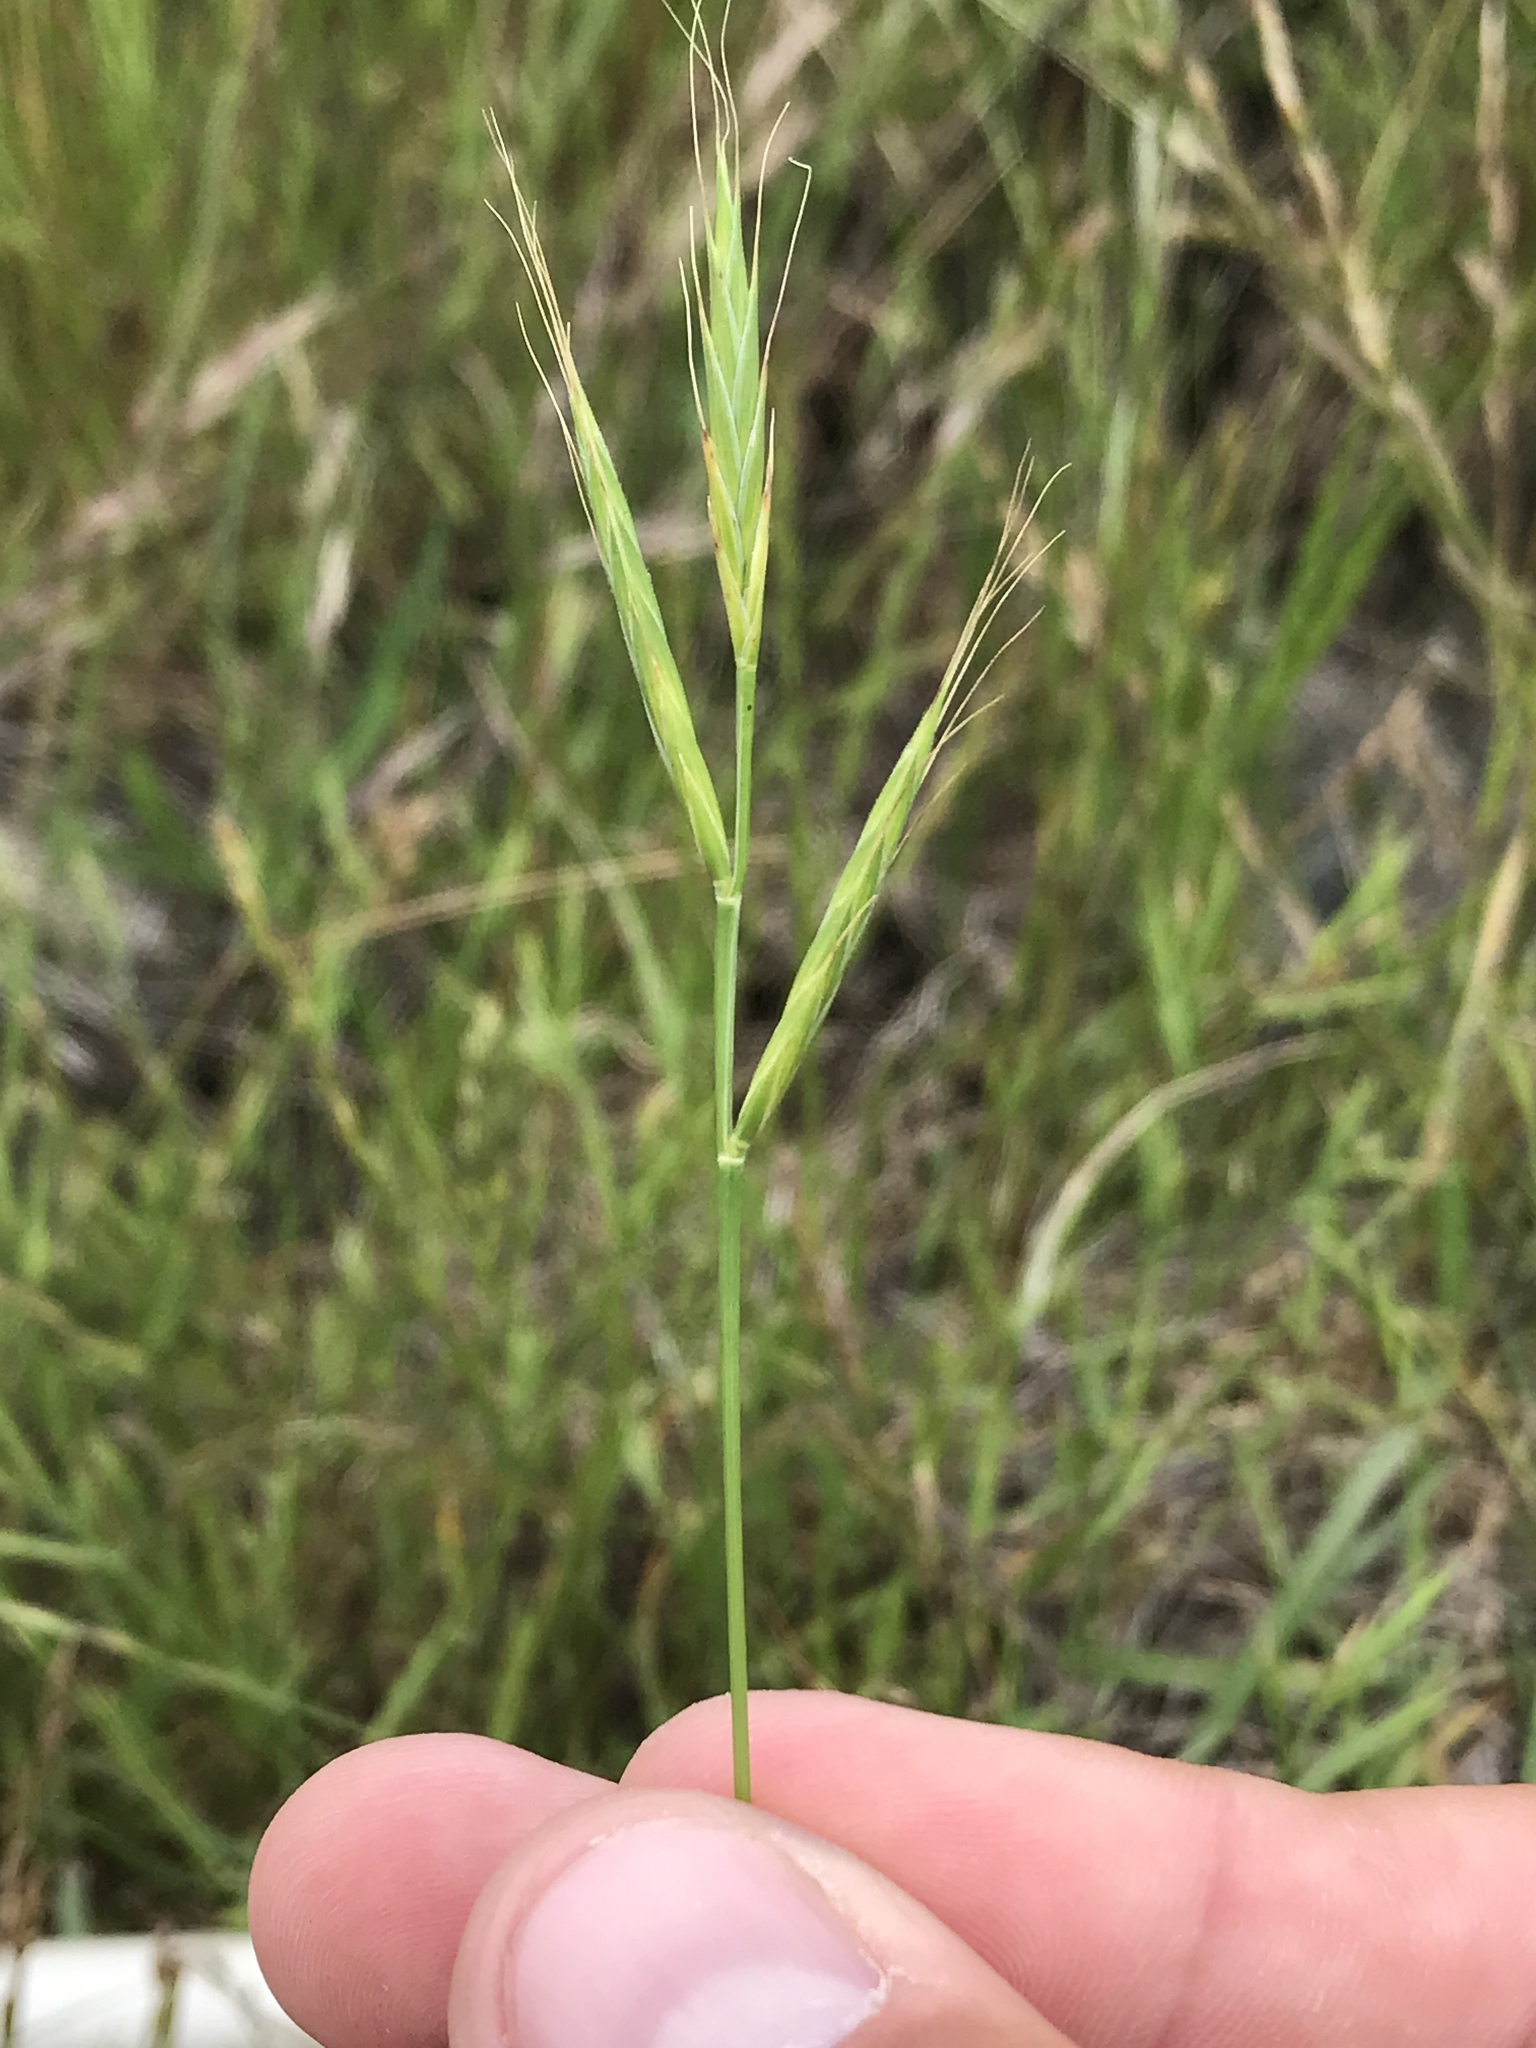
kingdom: Plantae
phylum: Tracheophyta
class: Liliopsida
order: Poales
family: Poaceae
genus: Brachypodium
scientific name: Brachypodium distachyon
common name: Stiff brome
